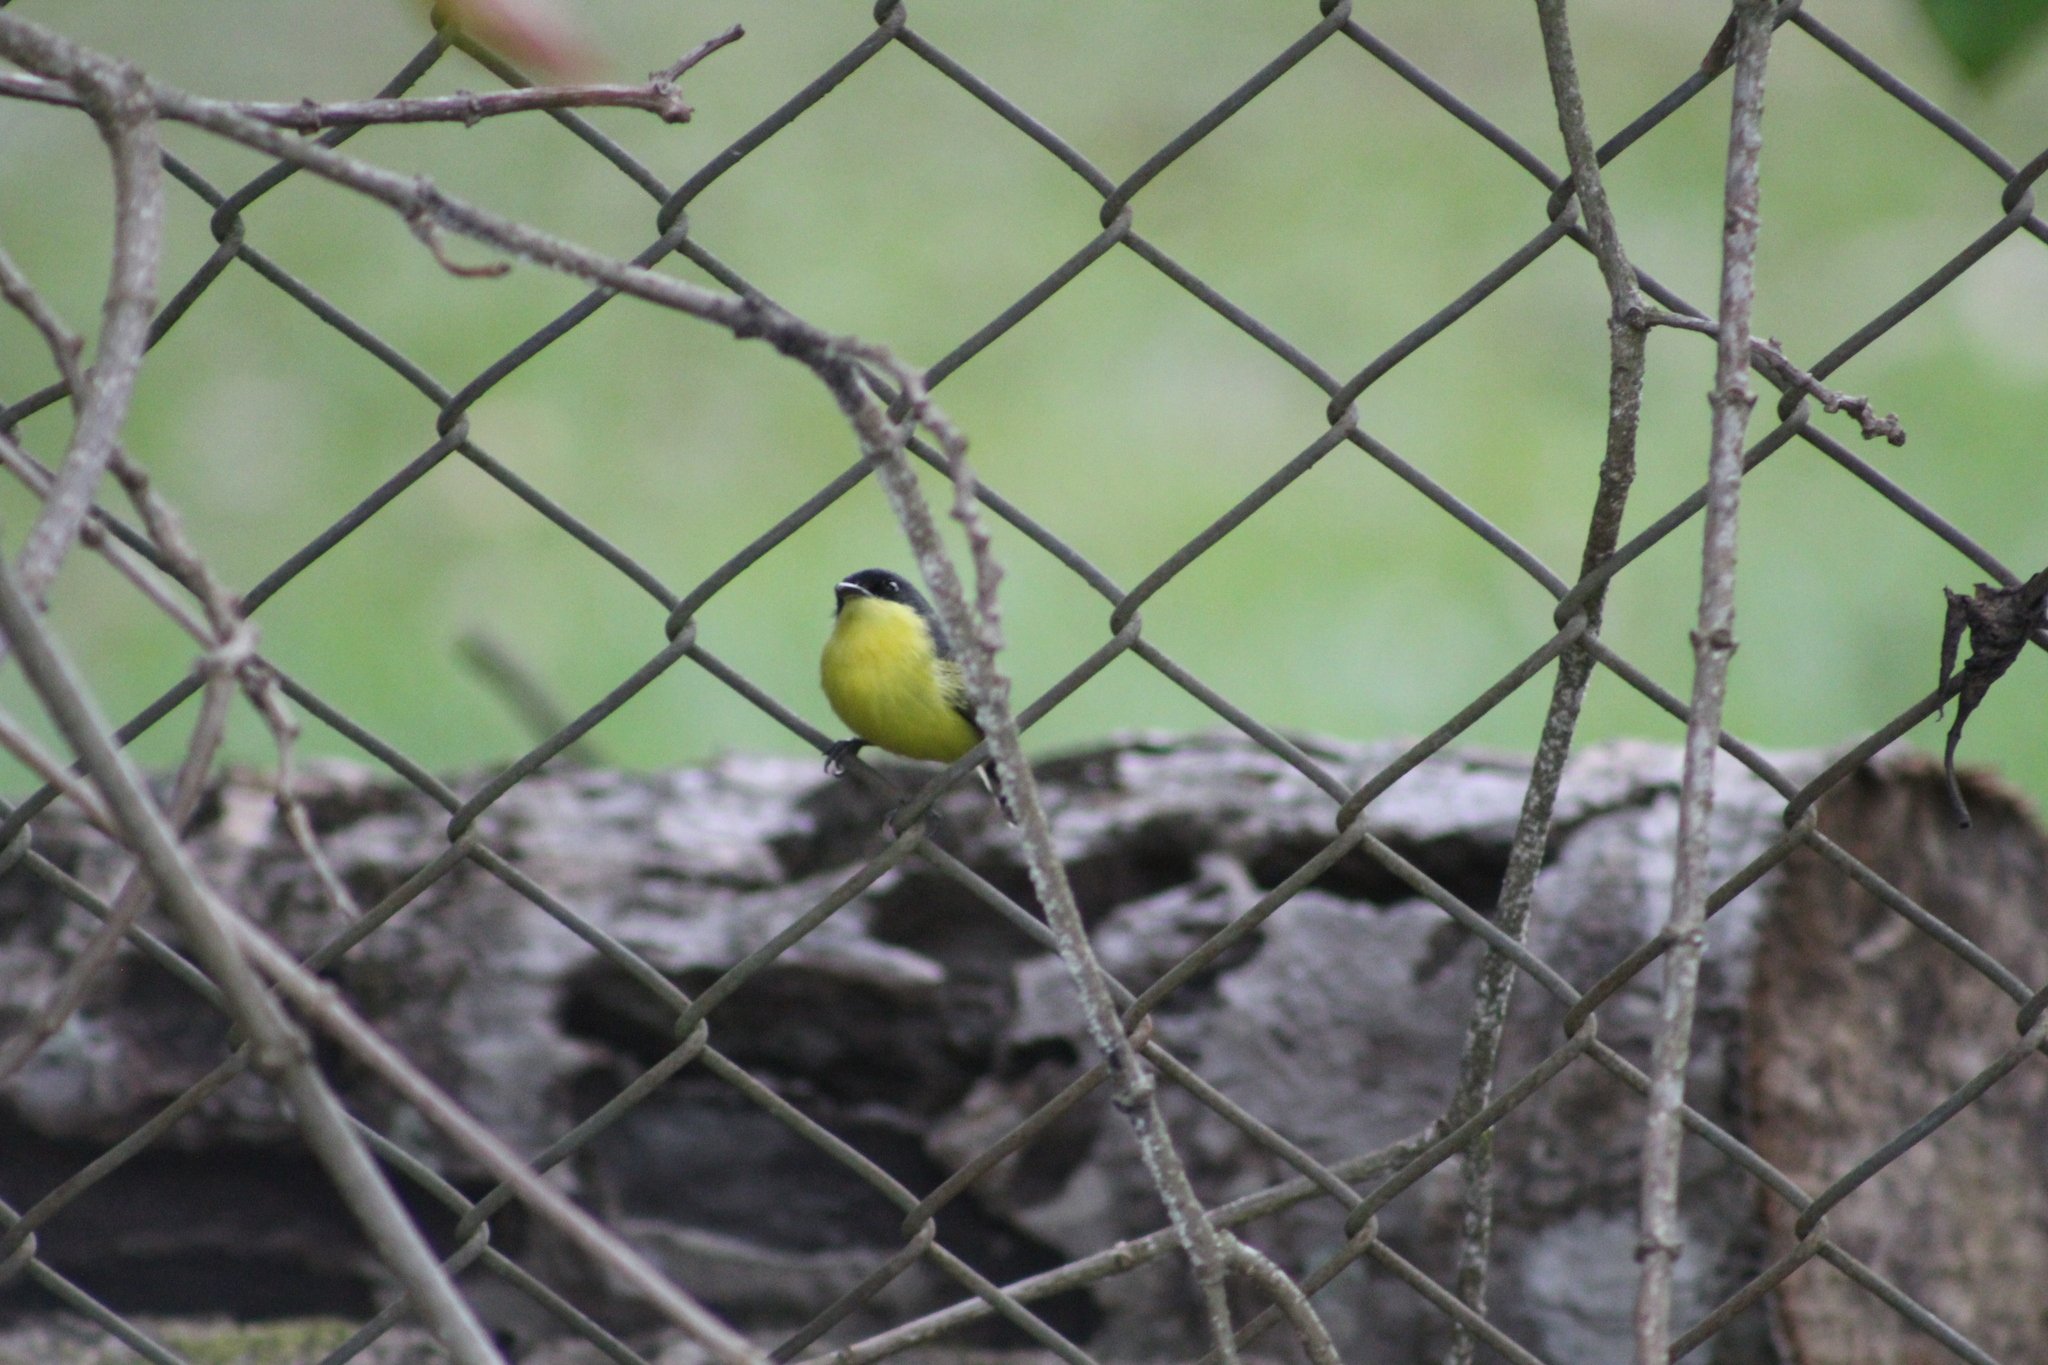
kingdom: Animalia
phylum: Chordata
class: Aves
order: Passeriformes
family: Tyrannidae
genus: Todirostrum
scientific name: Todirostrum cinereum
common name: Common tody-flycatcher
